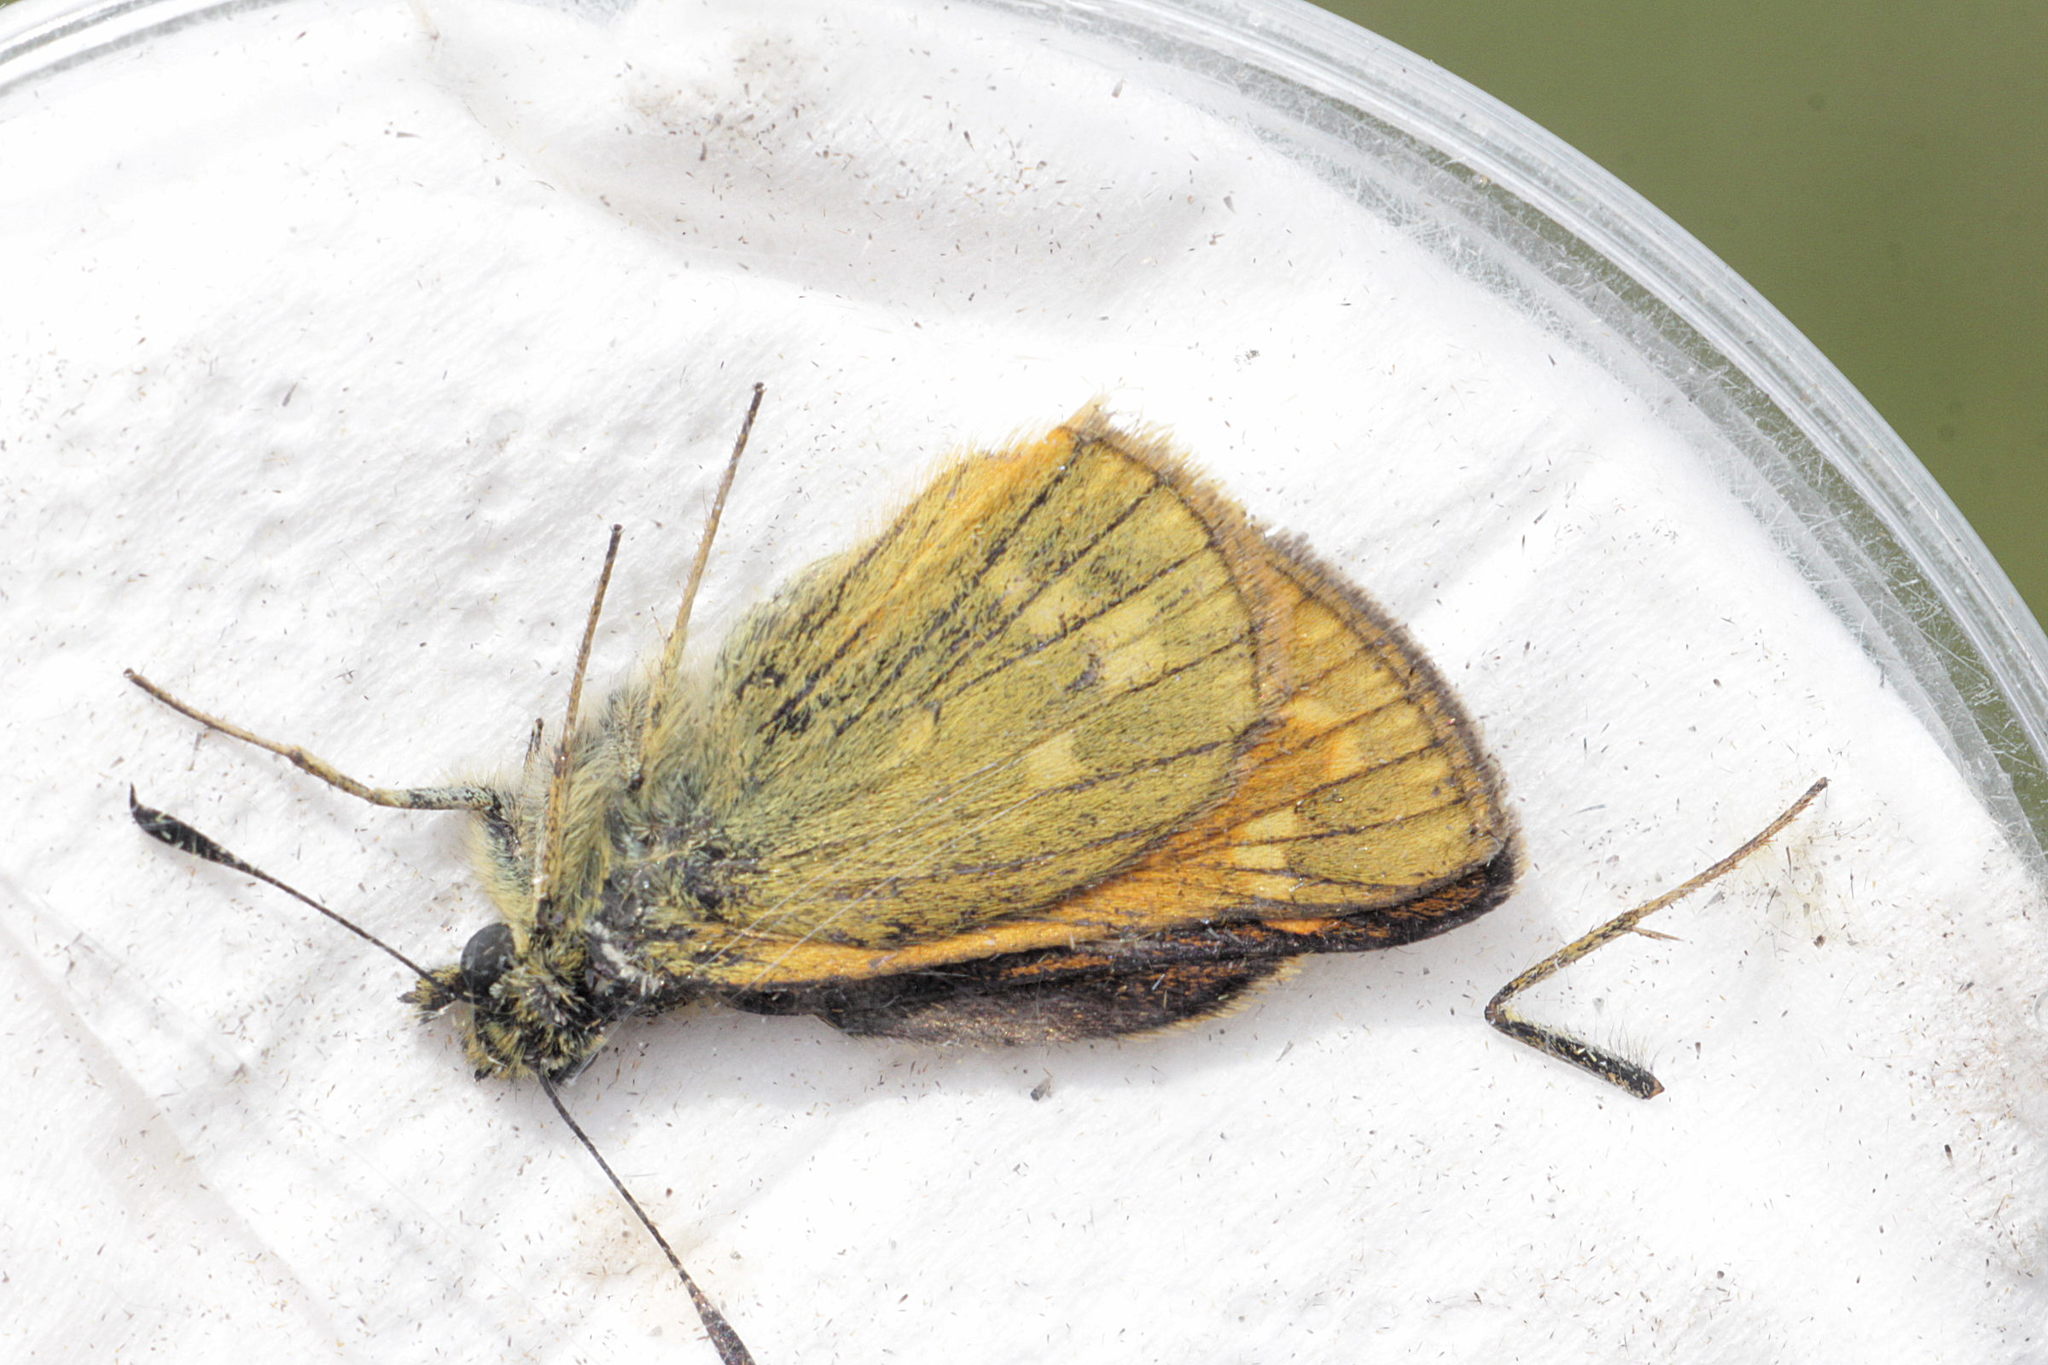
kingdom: Animalia
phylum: Arthropoda
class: Insecta
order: Lepidoptera
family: Hesperiidae
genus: Ochlodes
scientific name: Ochlodes venata
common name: Large skipper
